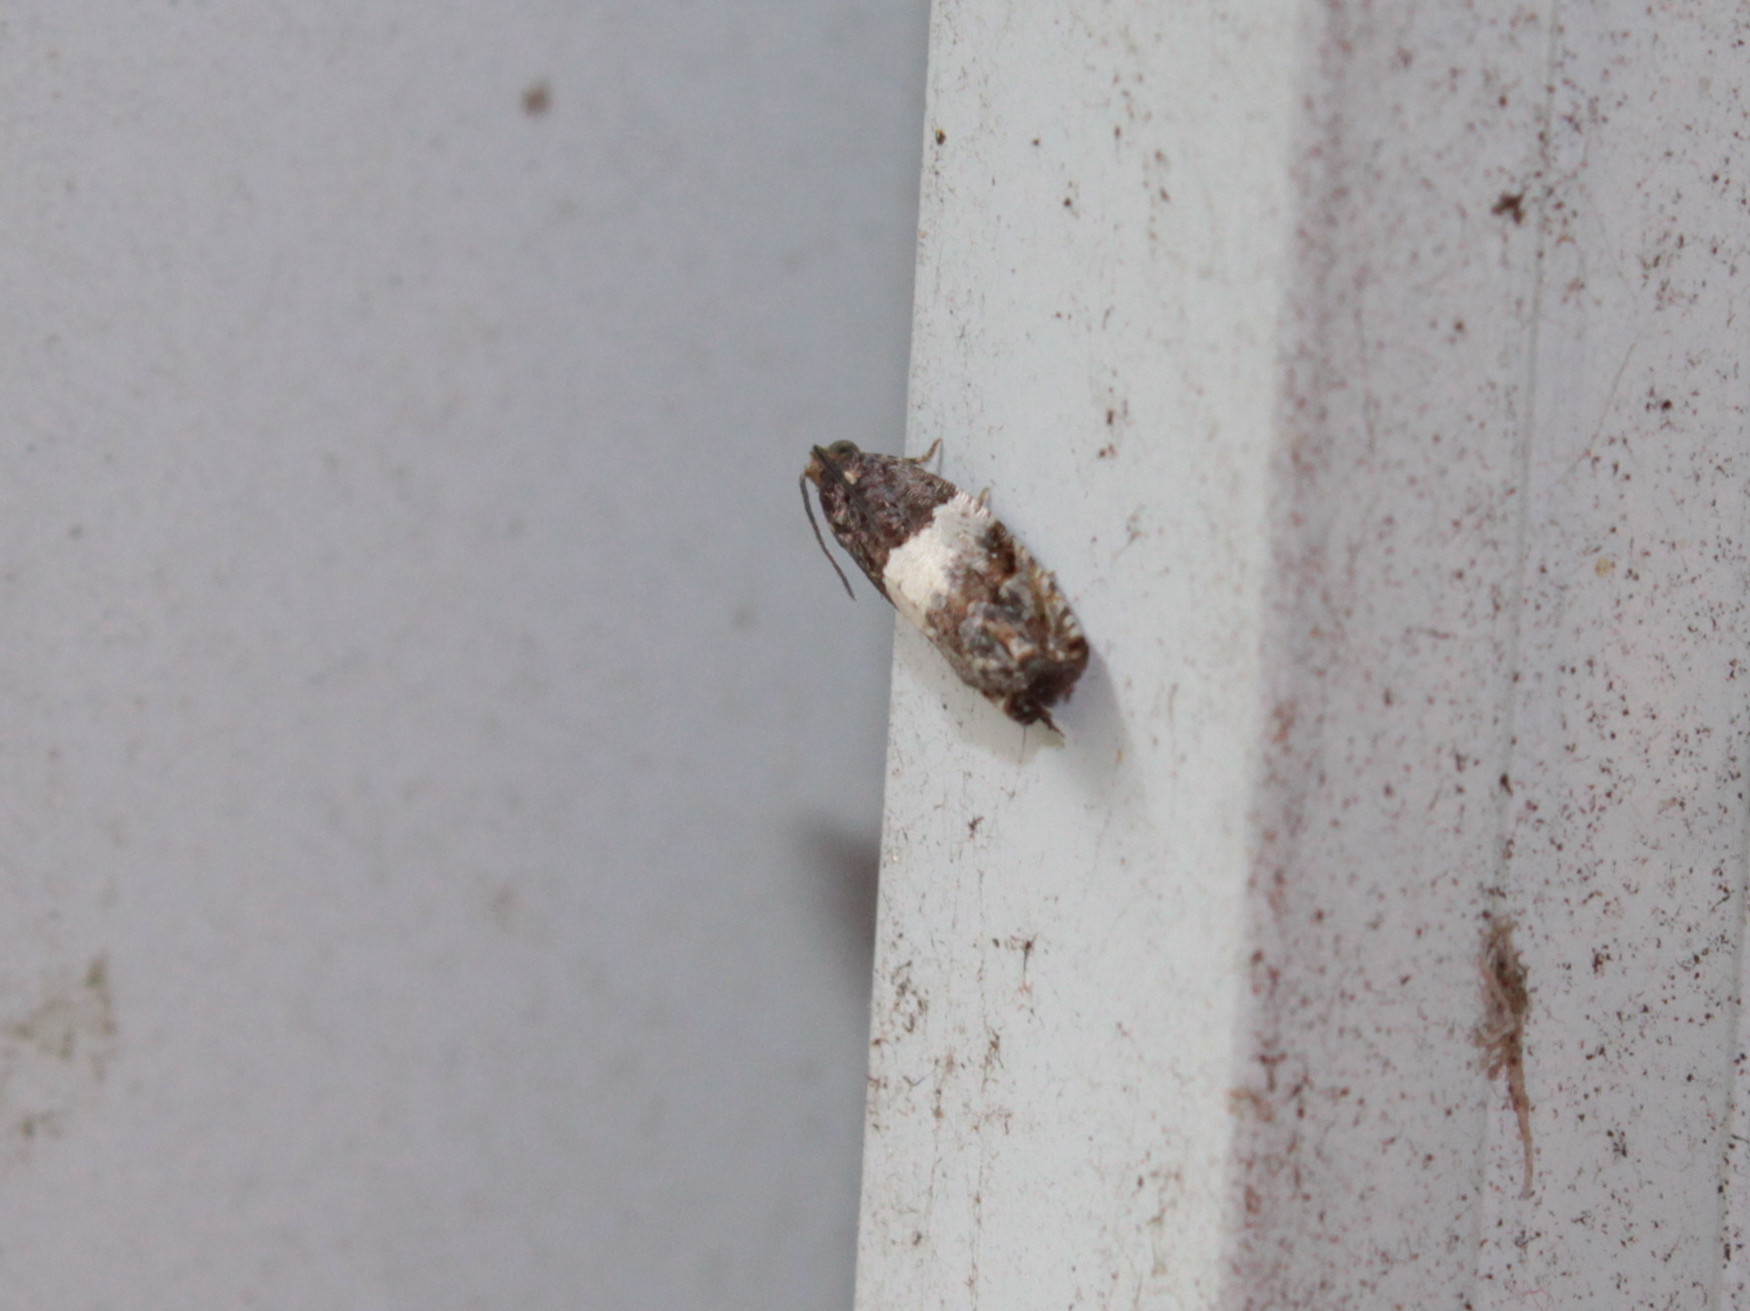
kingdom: Animalia
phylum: Arthropoda
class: Insecta
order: Lepidoptera
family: Tortricidae
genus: Gypsonoma
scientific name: Gypsonoma substitutionis
